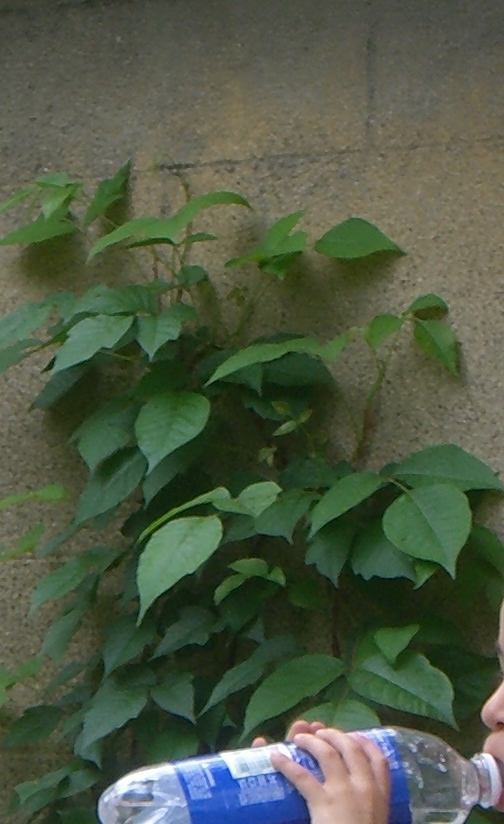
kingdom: Plantae
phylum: Tracheophyta
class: Magnoliopsida
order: Sapindales
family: Anacardiaceae
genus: Toxicodendron
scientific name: Toxicodendron radicans
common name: Poison ivy
